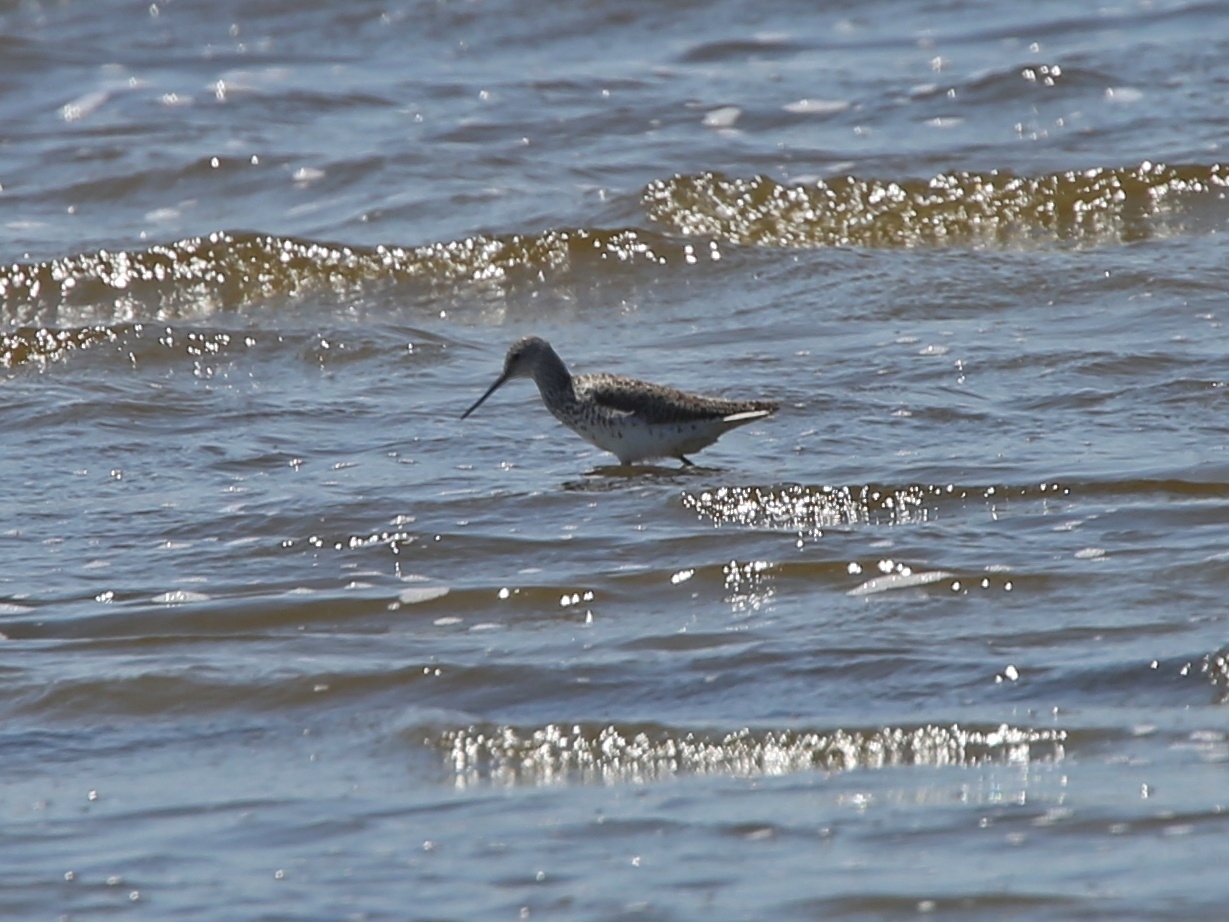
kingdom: Animalia
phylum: Chordata
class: Aves
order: Charadriiformes
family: Scolopacidae
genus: Tringa
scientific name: Tringa stagnatilis
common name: Marsh sandpiper
